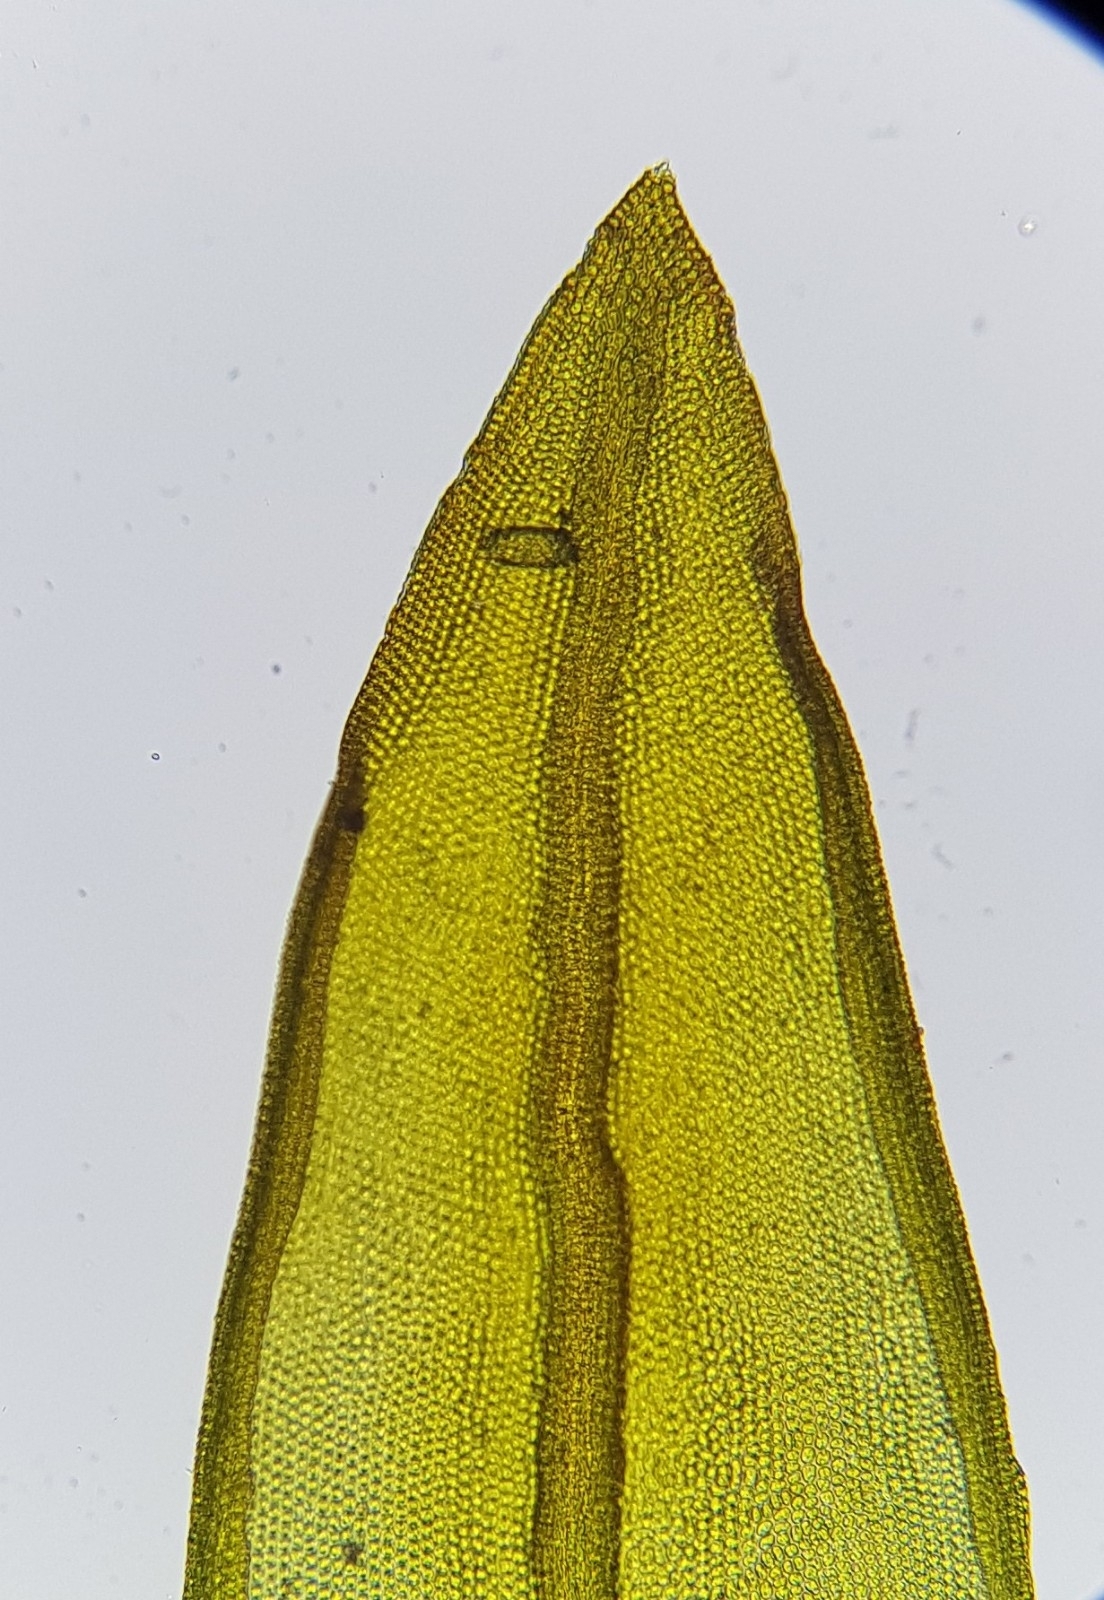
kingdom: Plantae
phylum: Bryophyta
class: Bryopsida
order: Pottiales
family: Pottiaceae
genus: Geheebia
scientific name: Geheebia lurida
